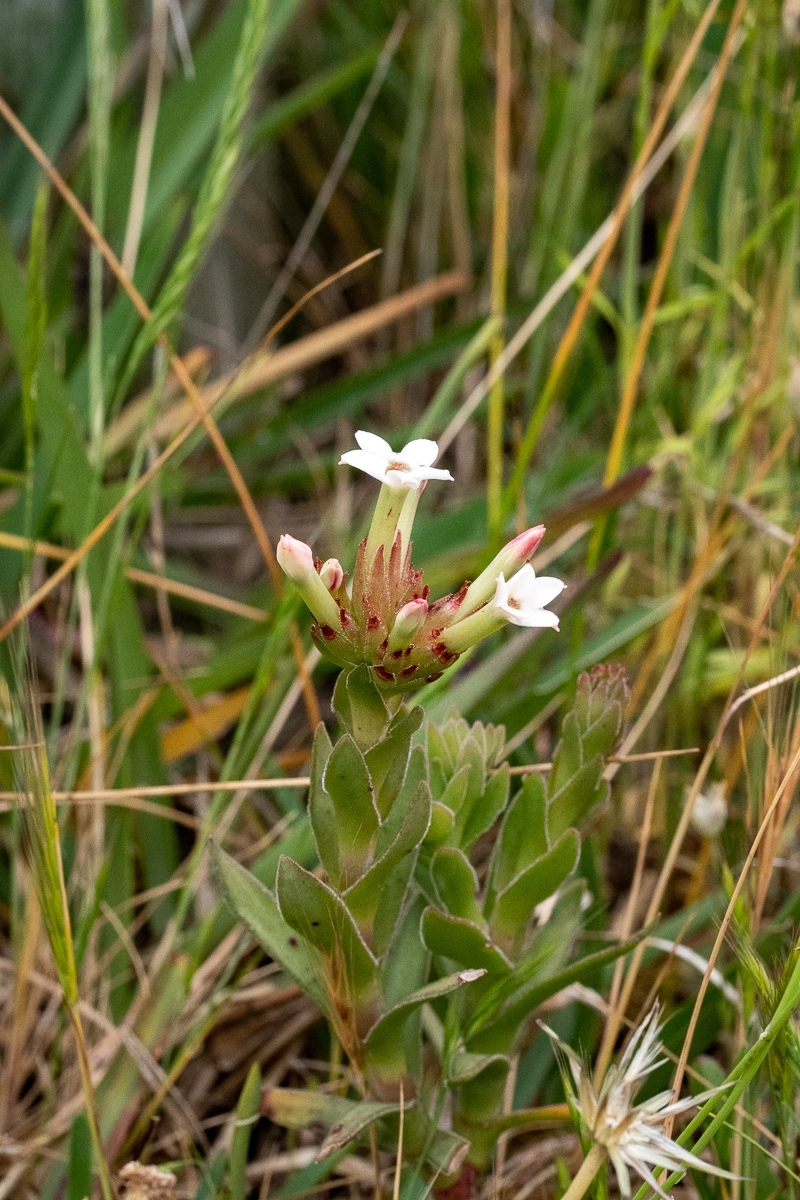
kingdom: Plantae
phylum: Tracheophyta
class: Magnoliopsida
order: Saxifragales
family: Crassulaceae
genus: Crassula
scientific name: Crassula fascicularis
